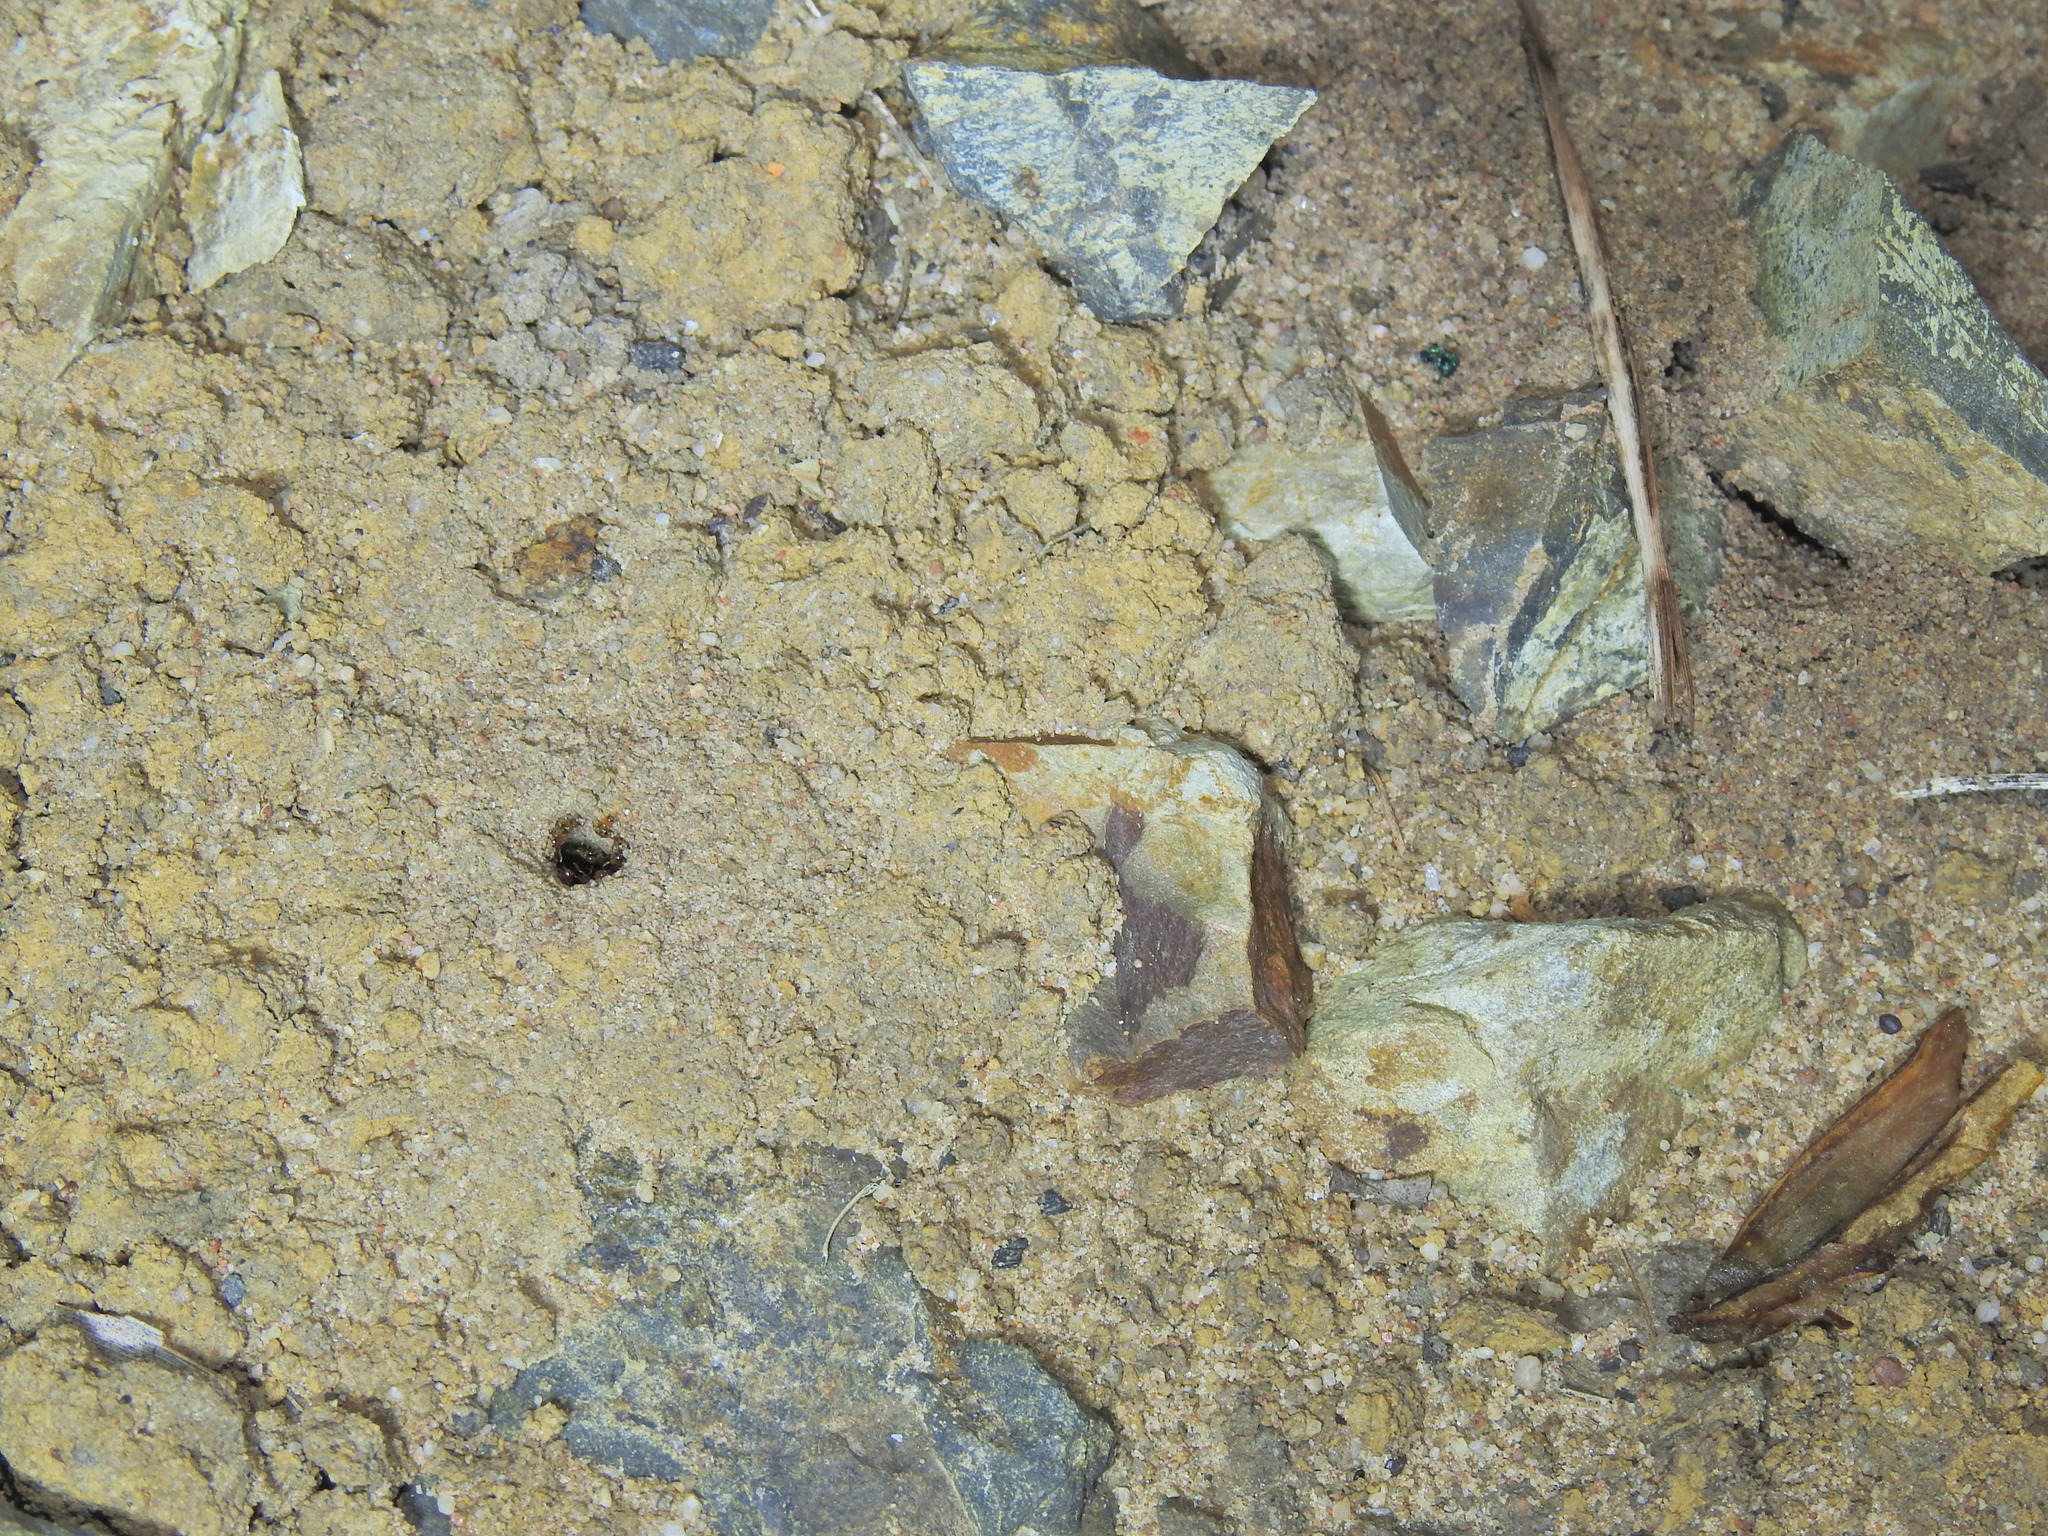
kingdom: Animalia
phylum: Arthropoda
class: Insecta
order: Hymenoptera
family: Formicidae
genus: Pheidole
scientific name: Pheidole
